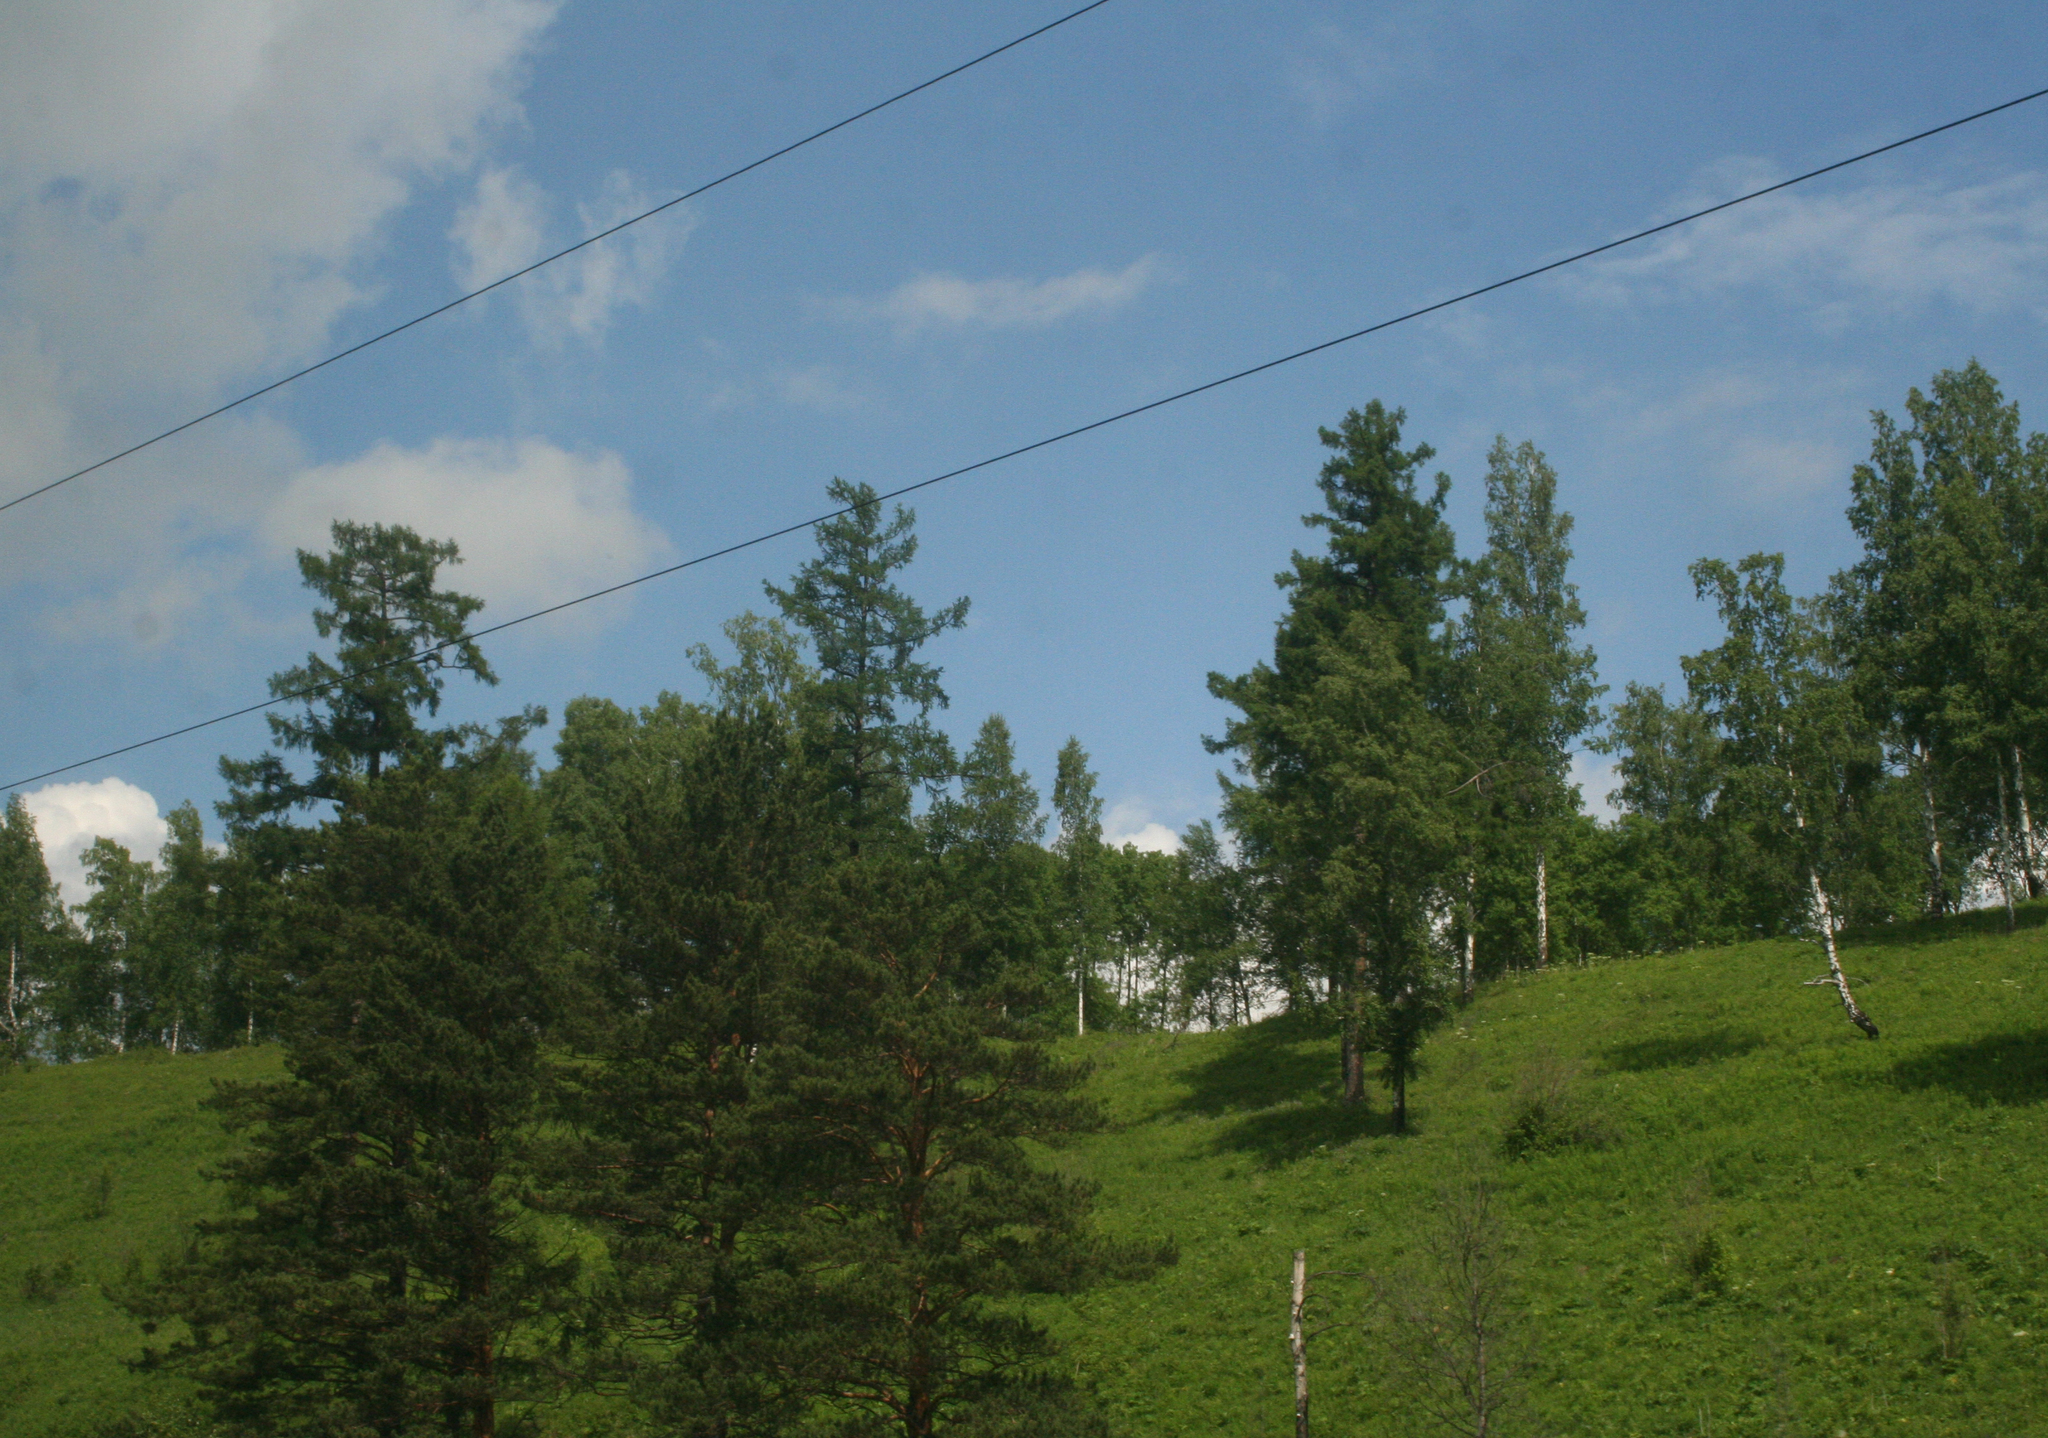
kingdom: Plantae
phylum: Tracheophyta
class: Pinopsida
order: Pinales
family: Pinaceae
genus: Larix
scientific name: Larix sibirica
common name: Siberian larch
